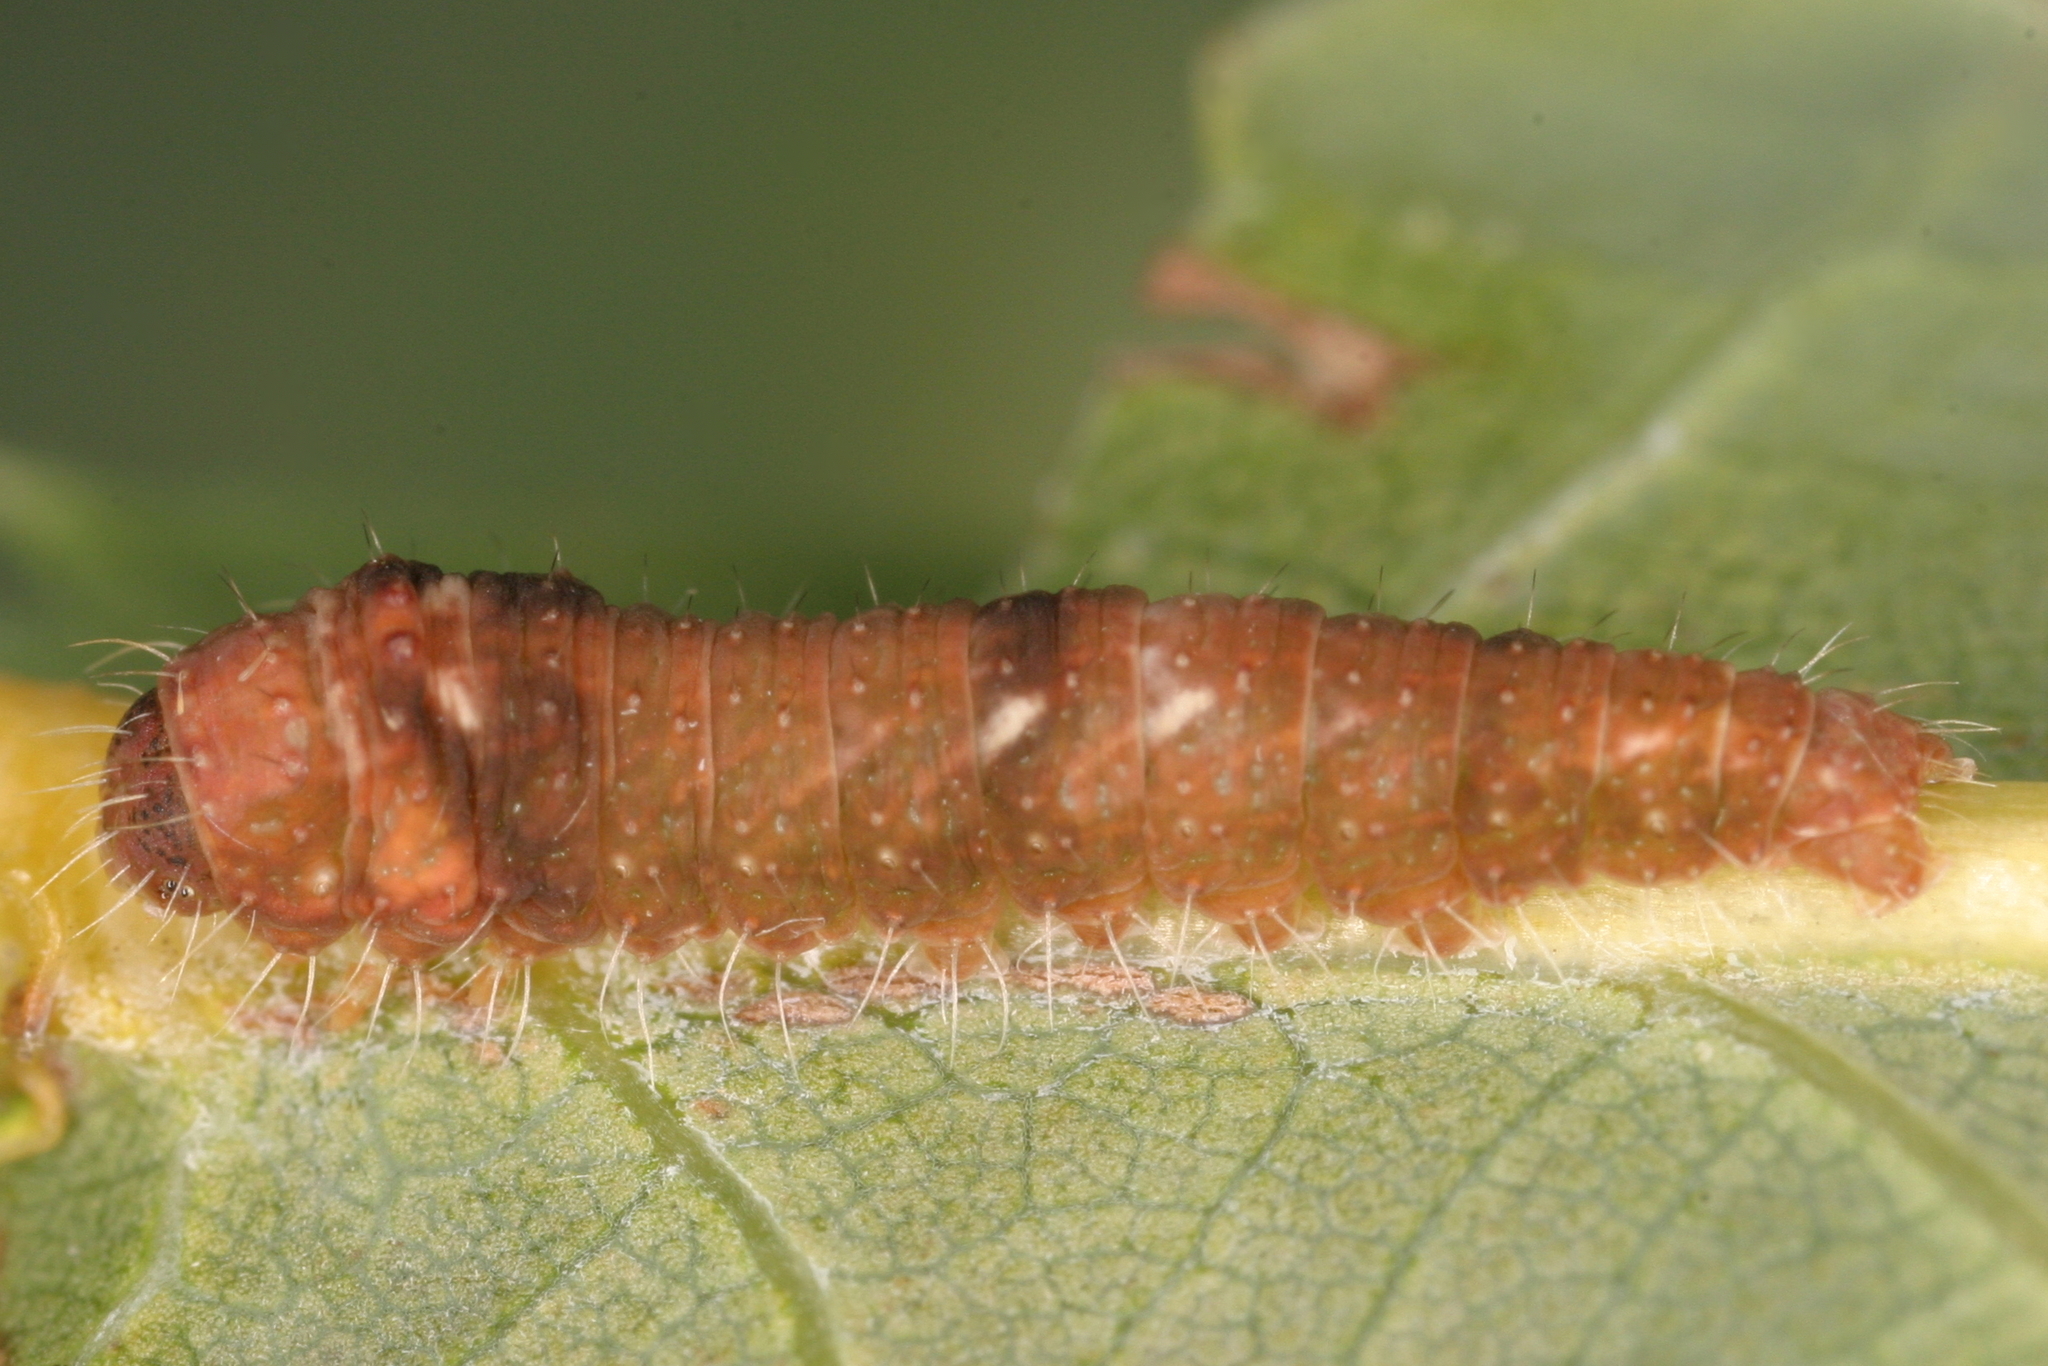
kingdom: Animalia
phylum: Arthropoda
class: Insecta
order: Lepidoptera
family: Nolidae
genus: Bena
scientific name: Bena bicolorana
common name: Scarce silver-lines
